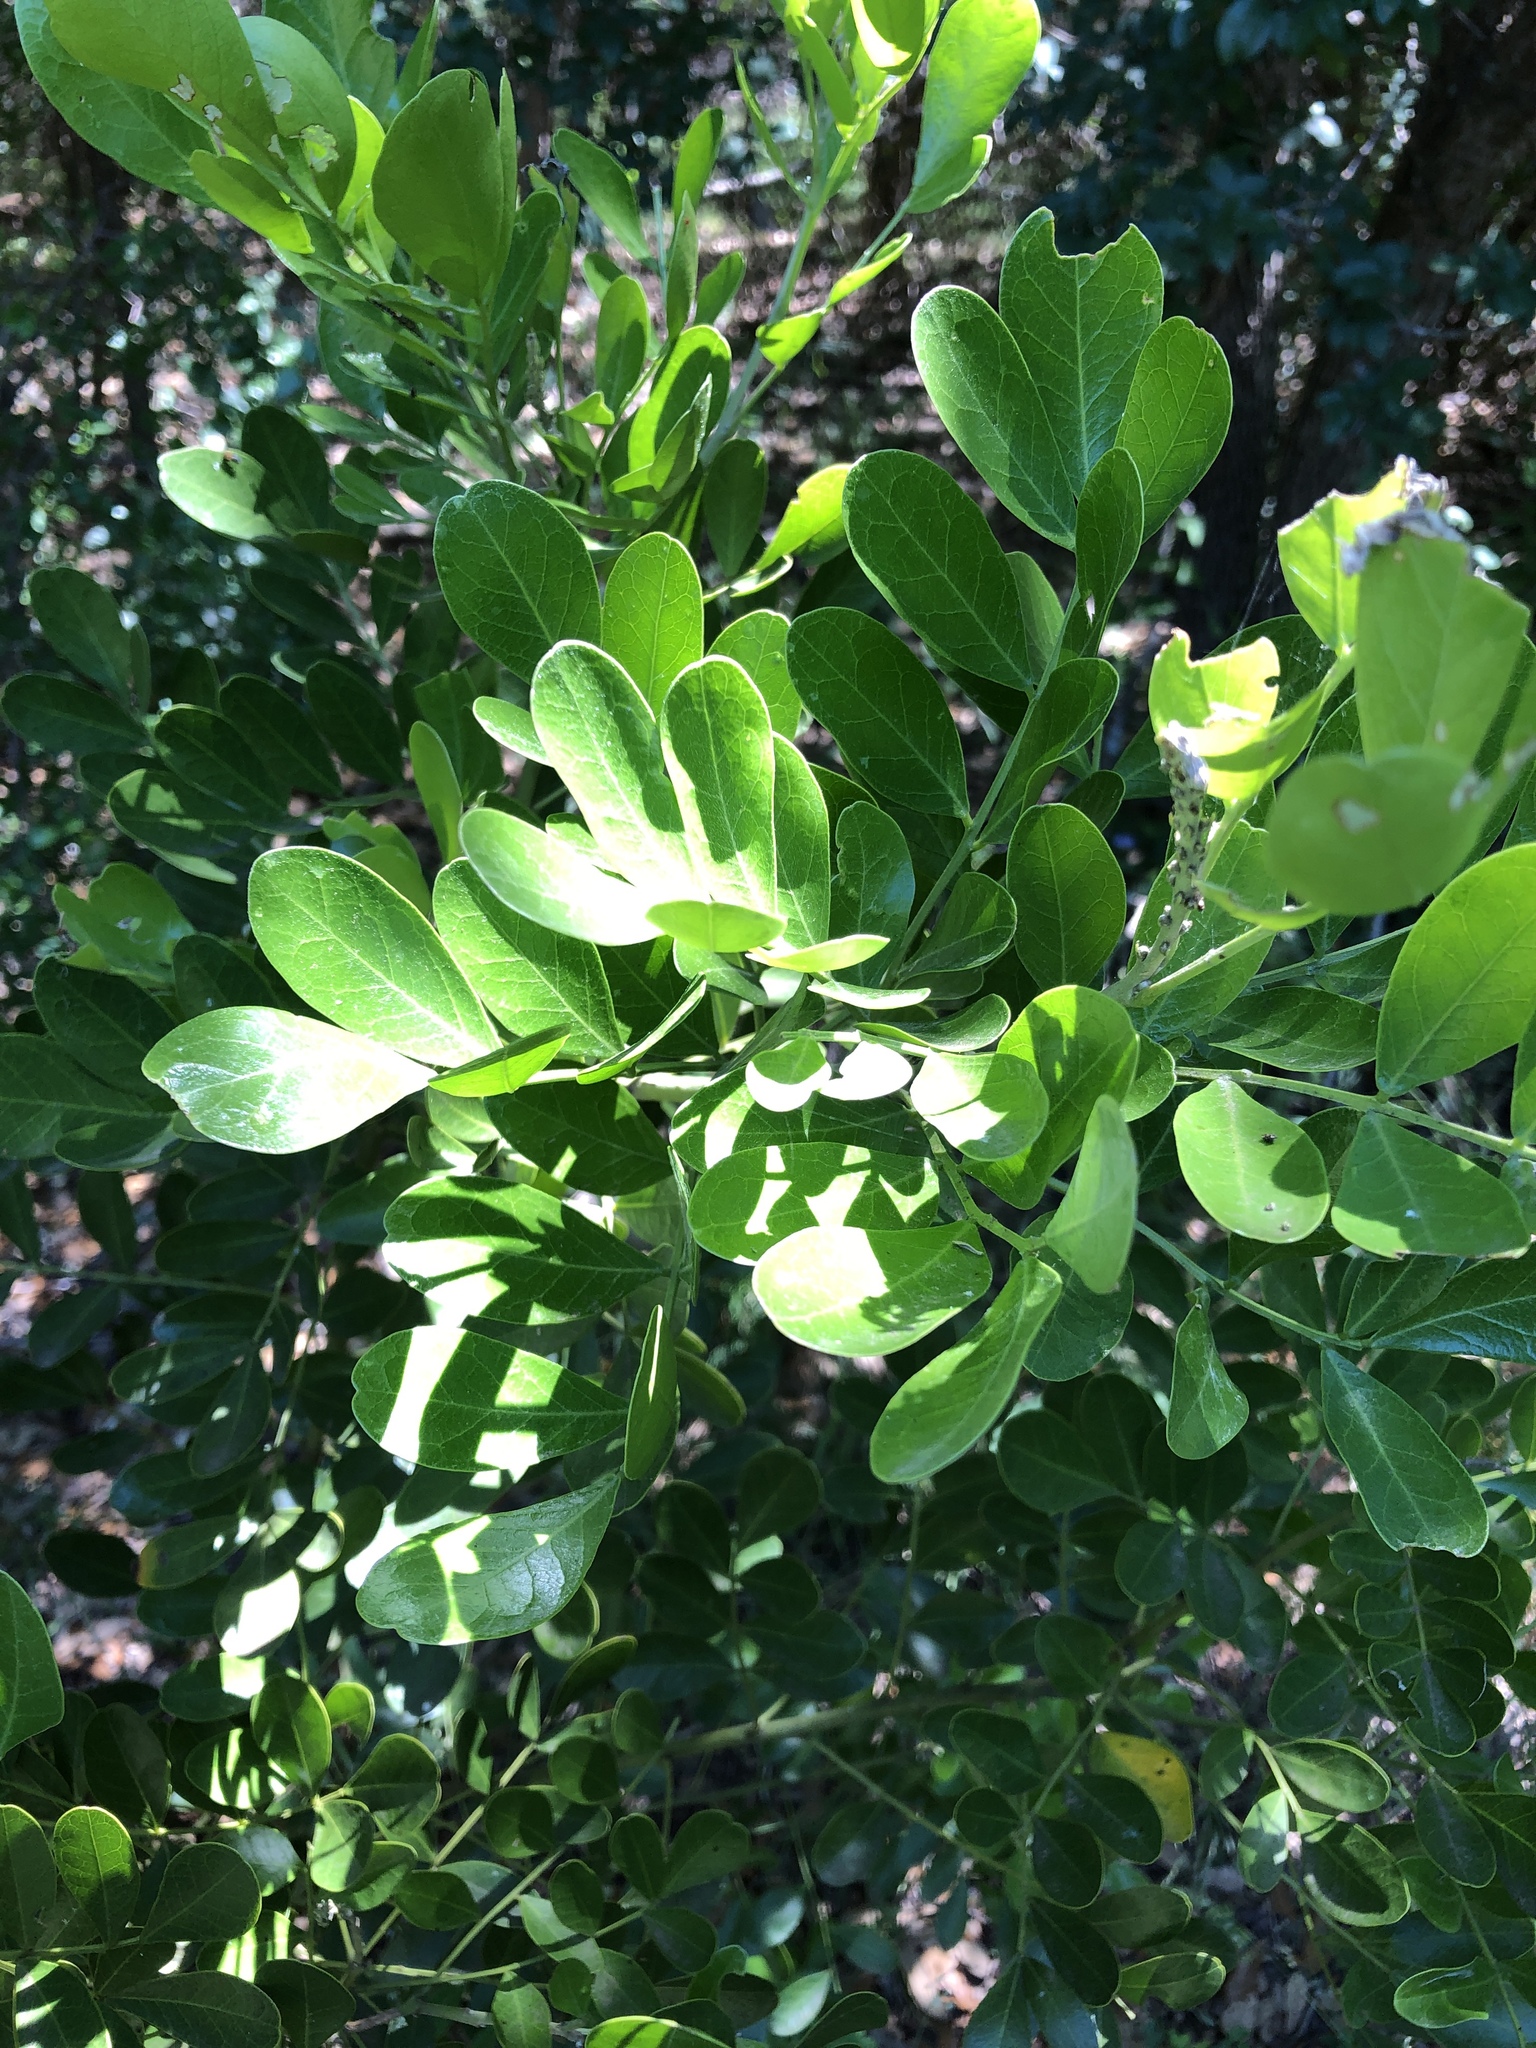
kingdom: Plantae
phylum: Tracheophyta
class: Magnoliopsida
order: Fabales
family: Fabaceae
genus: Dermatophyllum
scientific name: Dermatophyllum secundiflorum
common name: Texas-mountain-laurel
